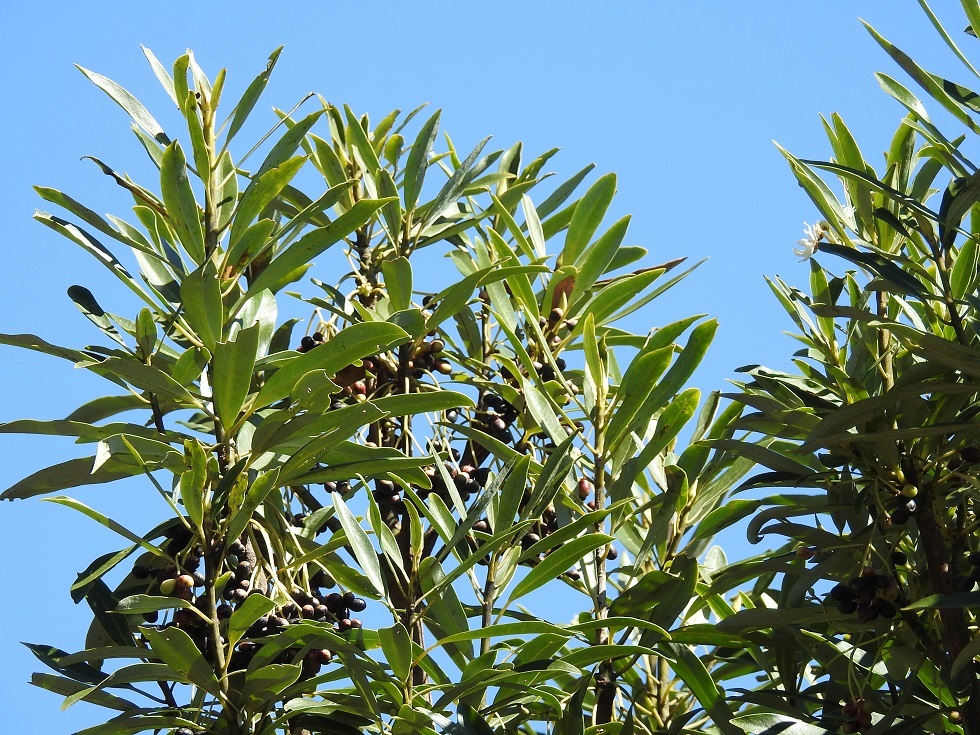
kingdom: Plantae
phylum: Tracheophyta
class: Magnoliopsida
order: Canellales
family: Winteraceae
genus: Drimys
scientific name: Drimys granadensis
